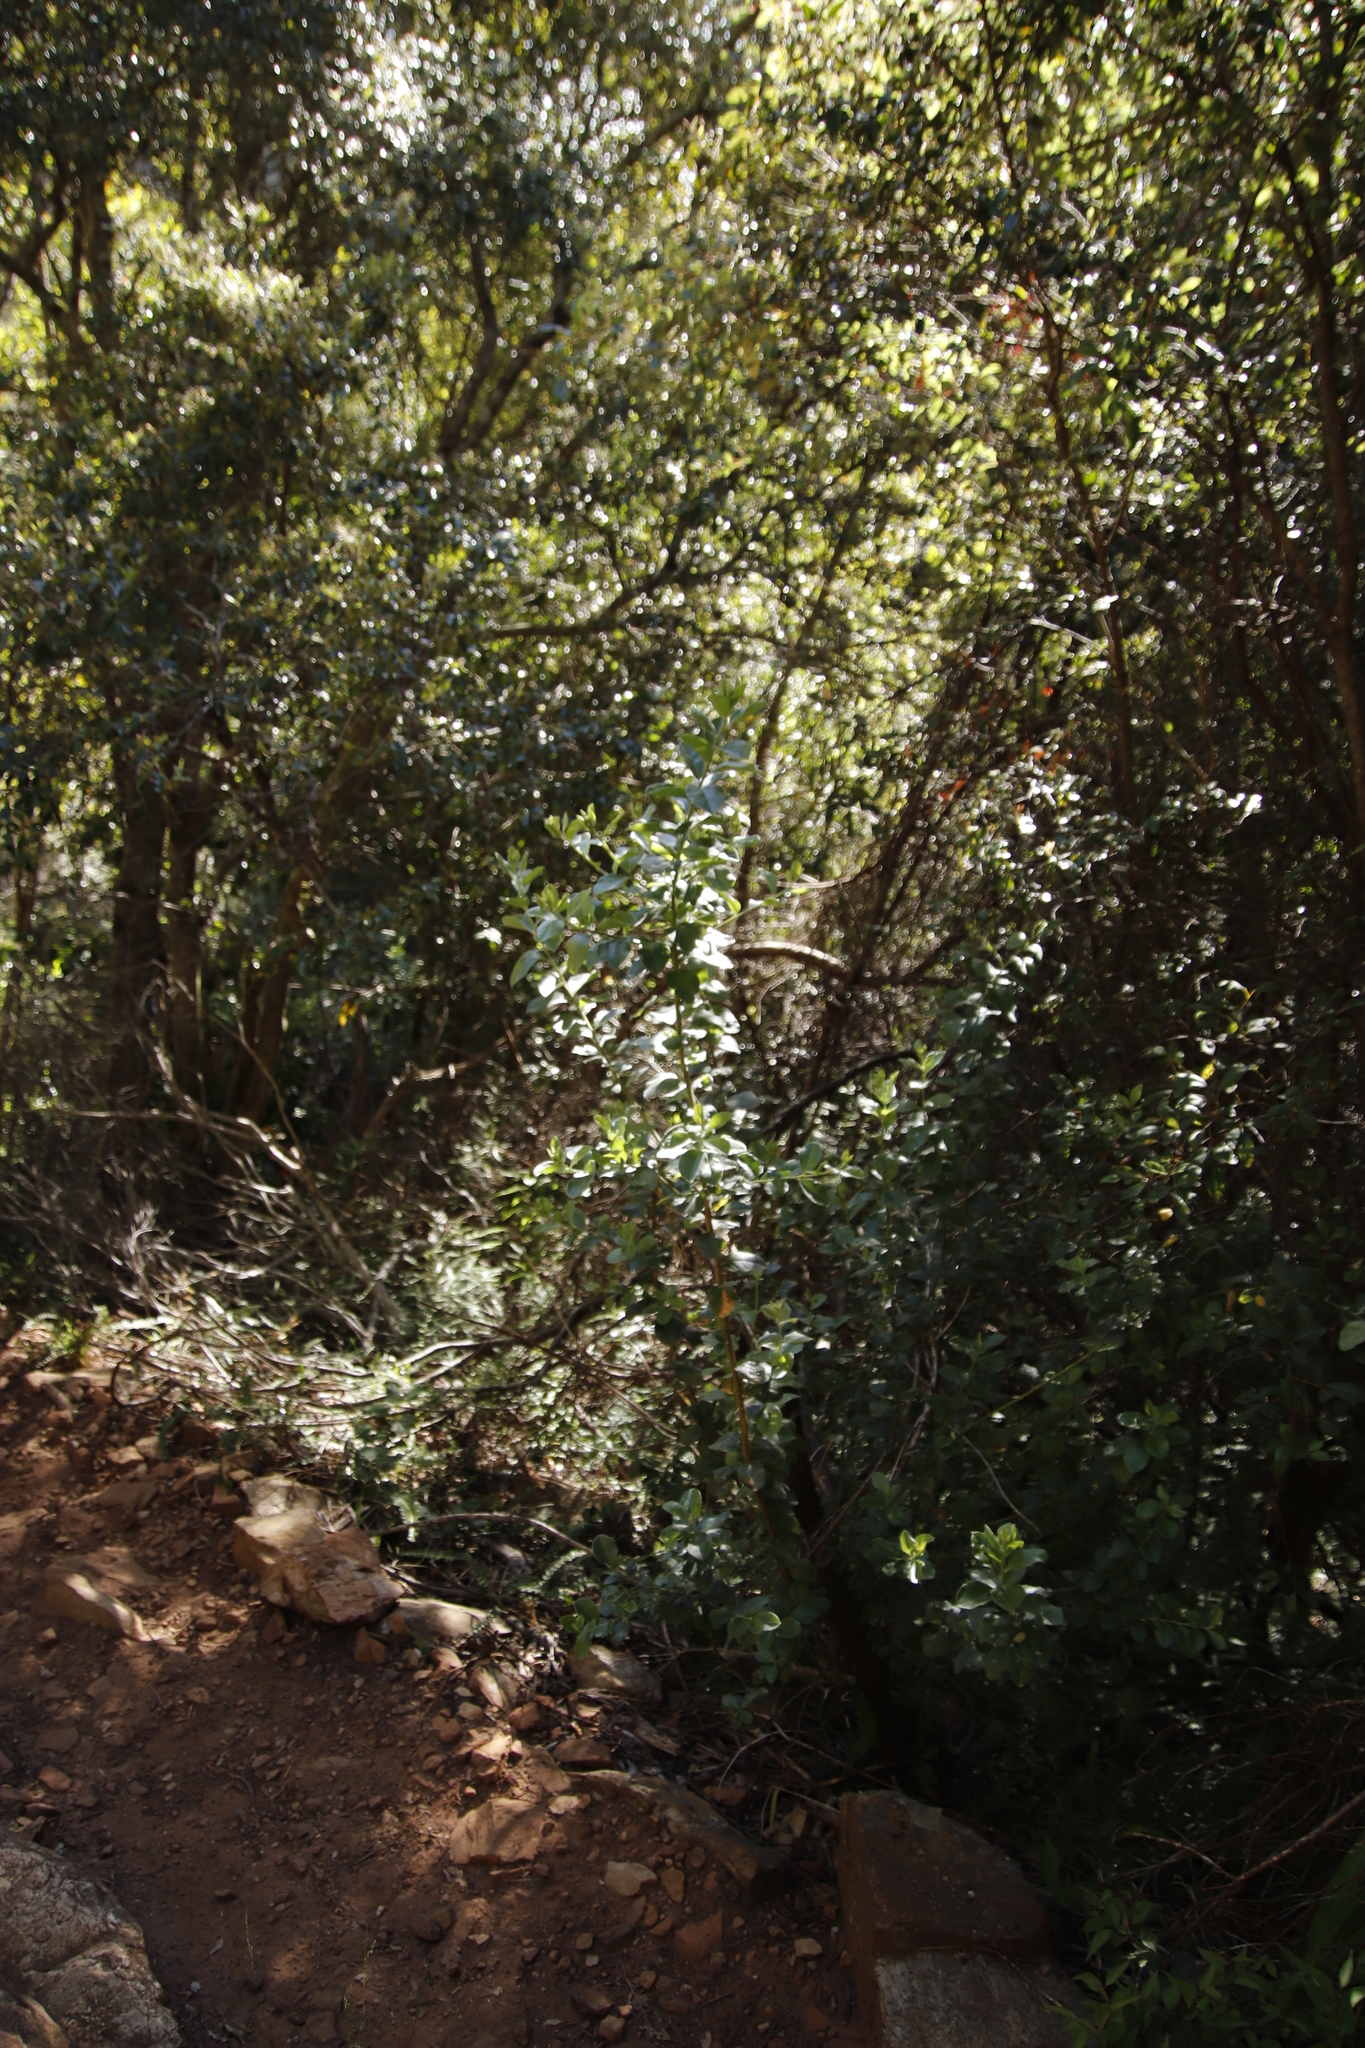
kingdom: Plantae
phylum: Tracheophyta
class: Magnoliopsida
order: Fabales
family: Fabaceae
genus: Podalyria
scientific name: Podalyria calyptrata
